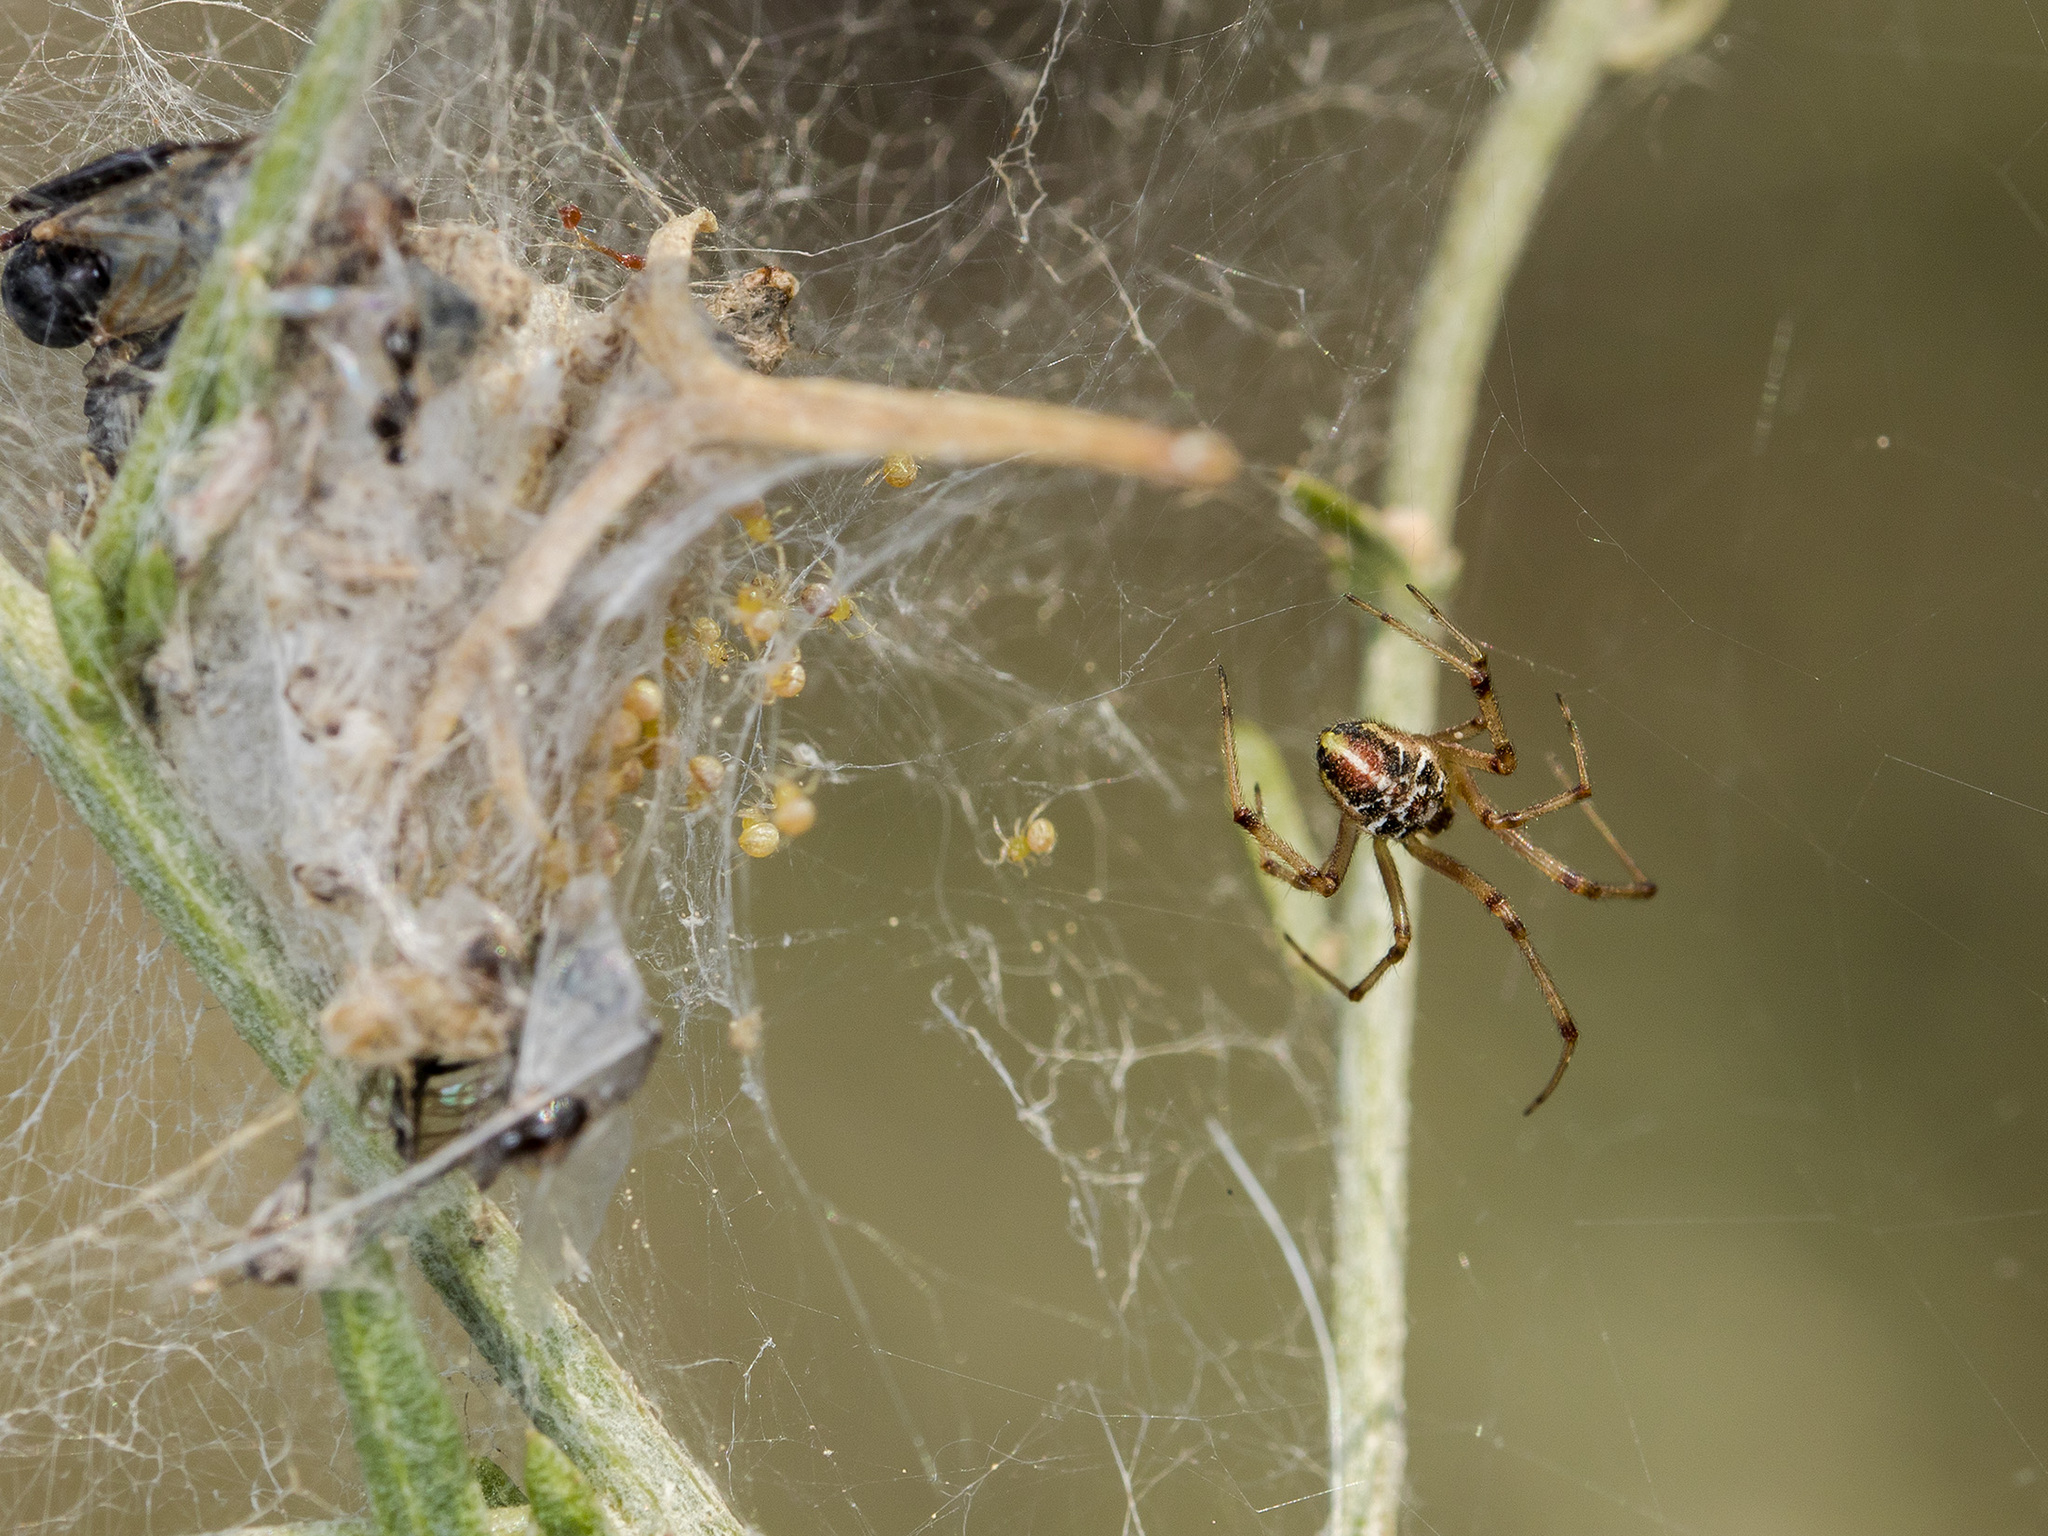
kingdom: Animalia
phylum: Arthropoda
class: Arachnida
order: Araneae
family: Theridiidae
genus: Phylloneta
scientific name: Phylloneta impressa
